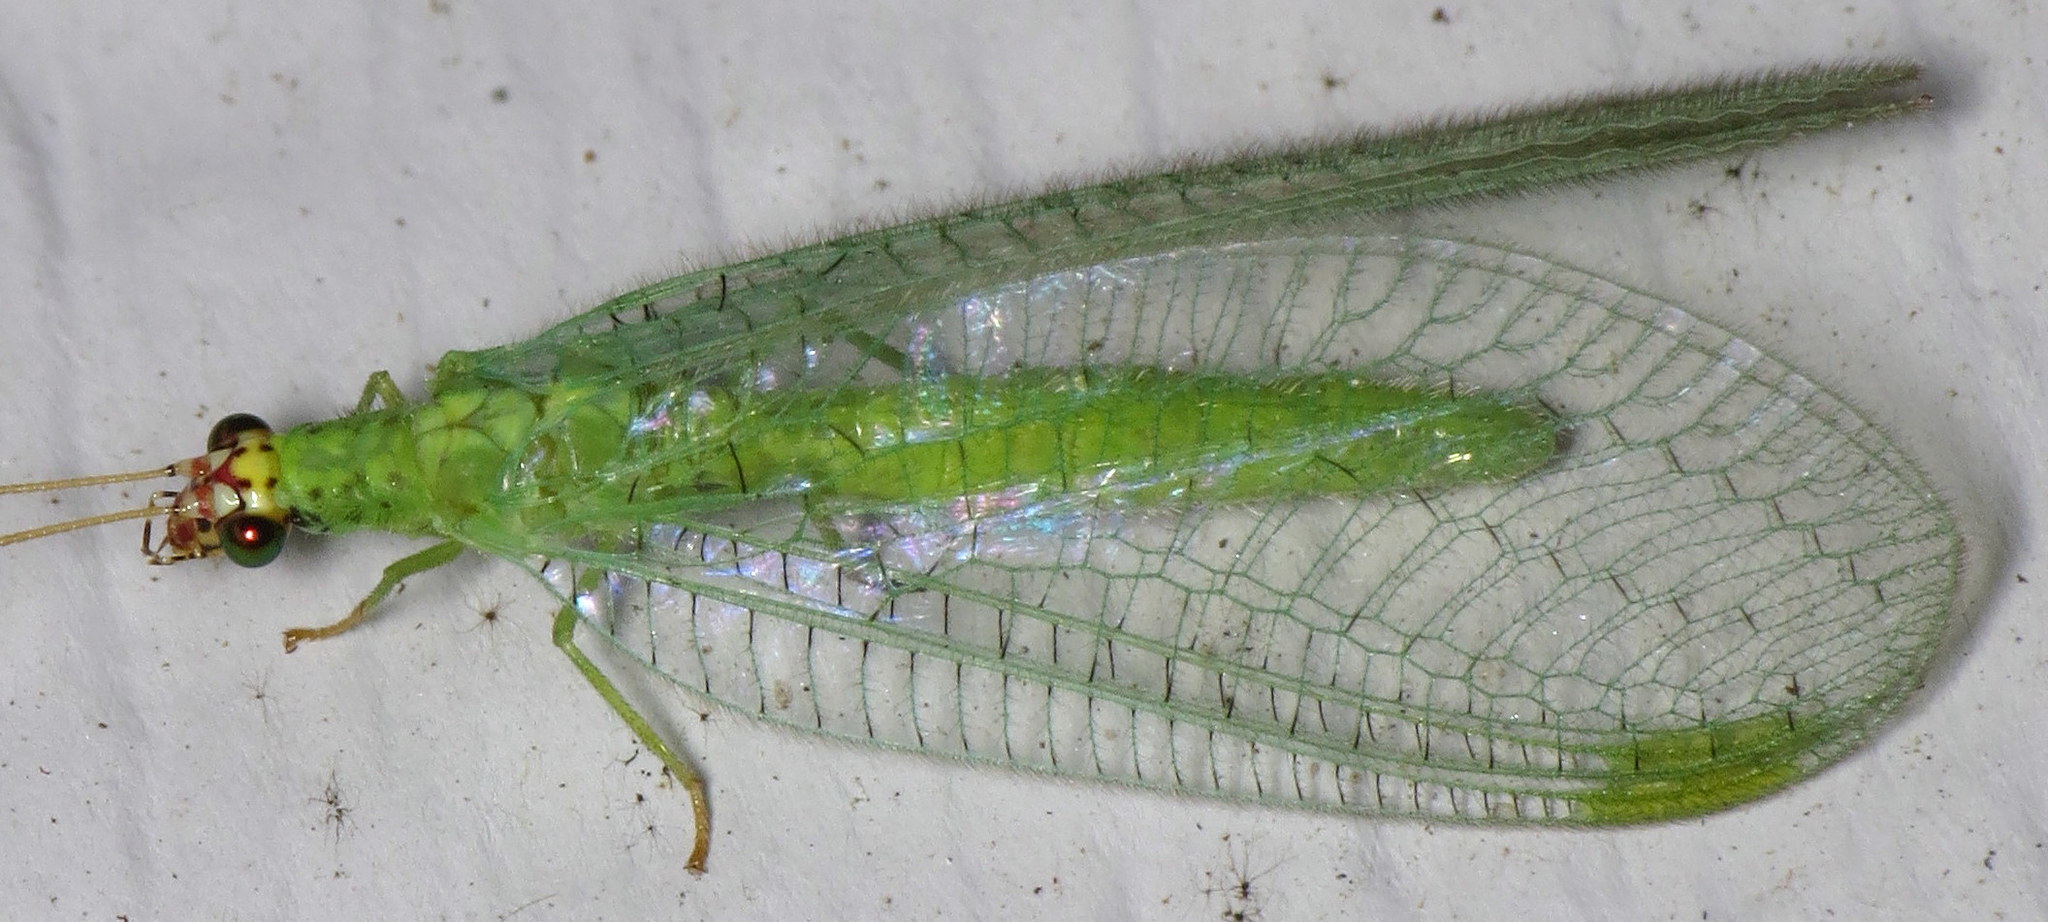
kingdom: Animalia
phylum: Arthropoda
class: Insecta
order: Neuroptera
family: Chrysopidae
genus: Chrysopa
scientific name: Chrysopa oculata
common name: Golden-eyed lacewing
